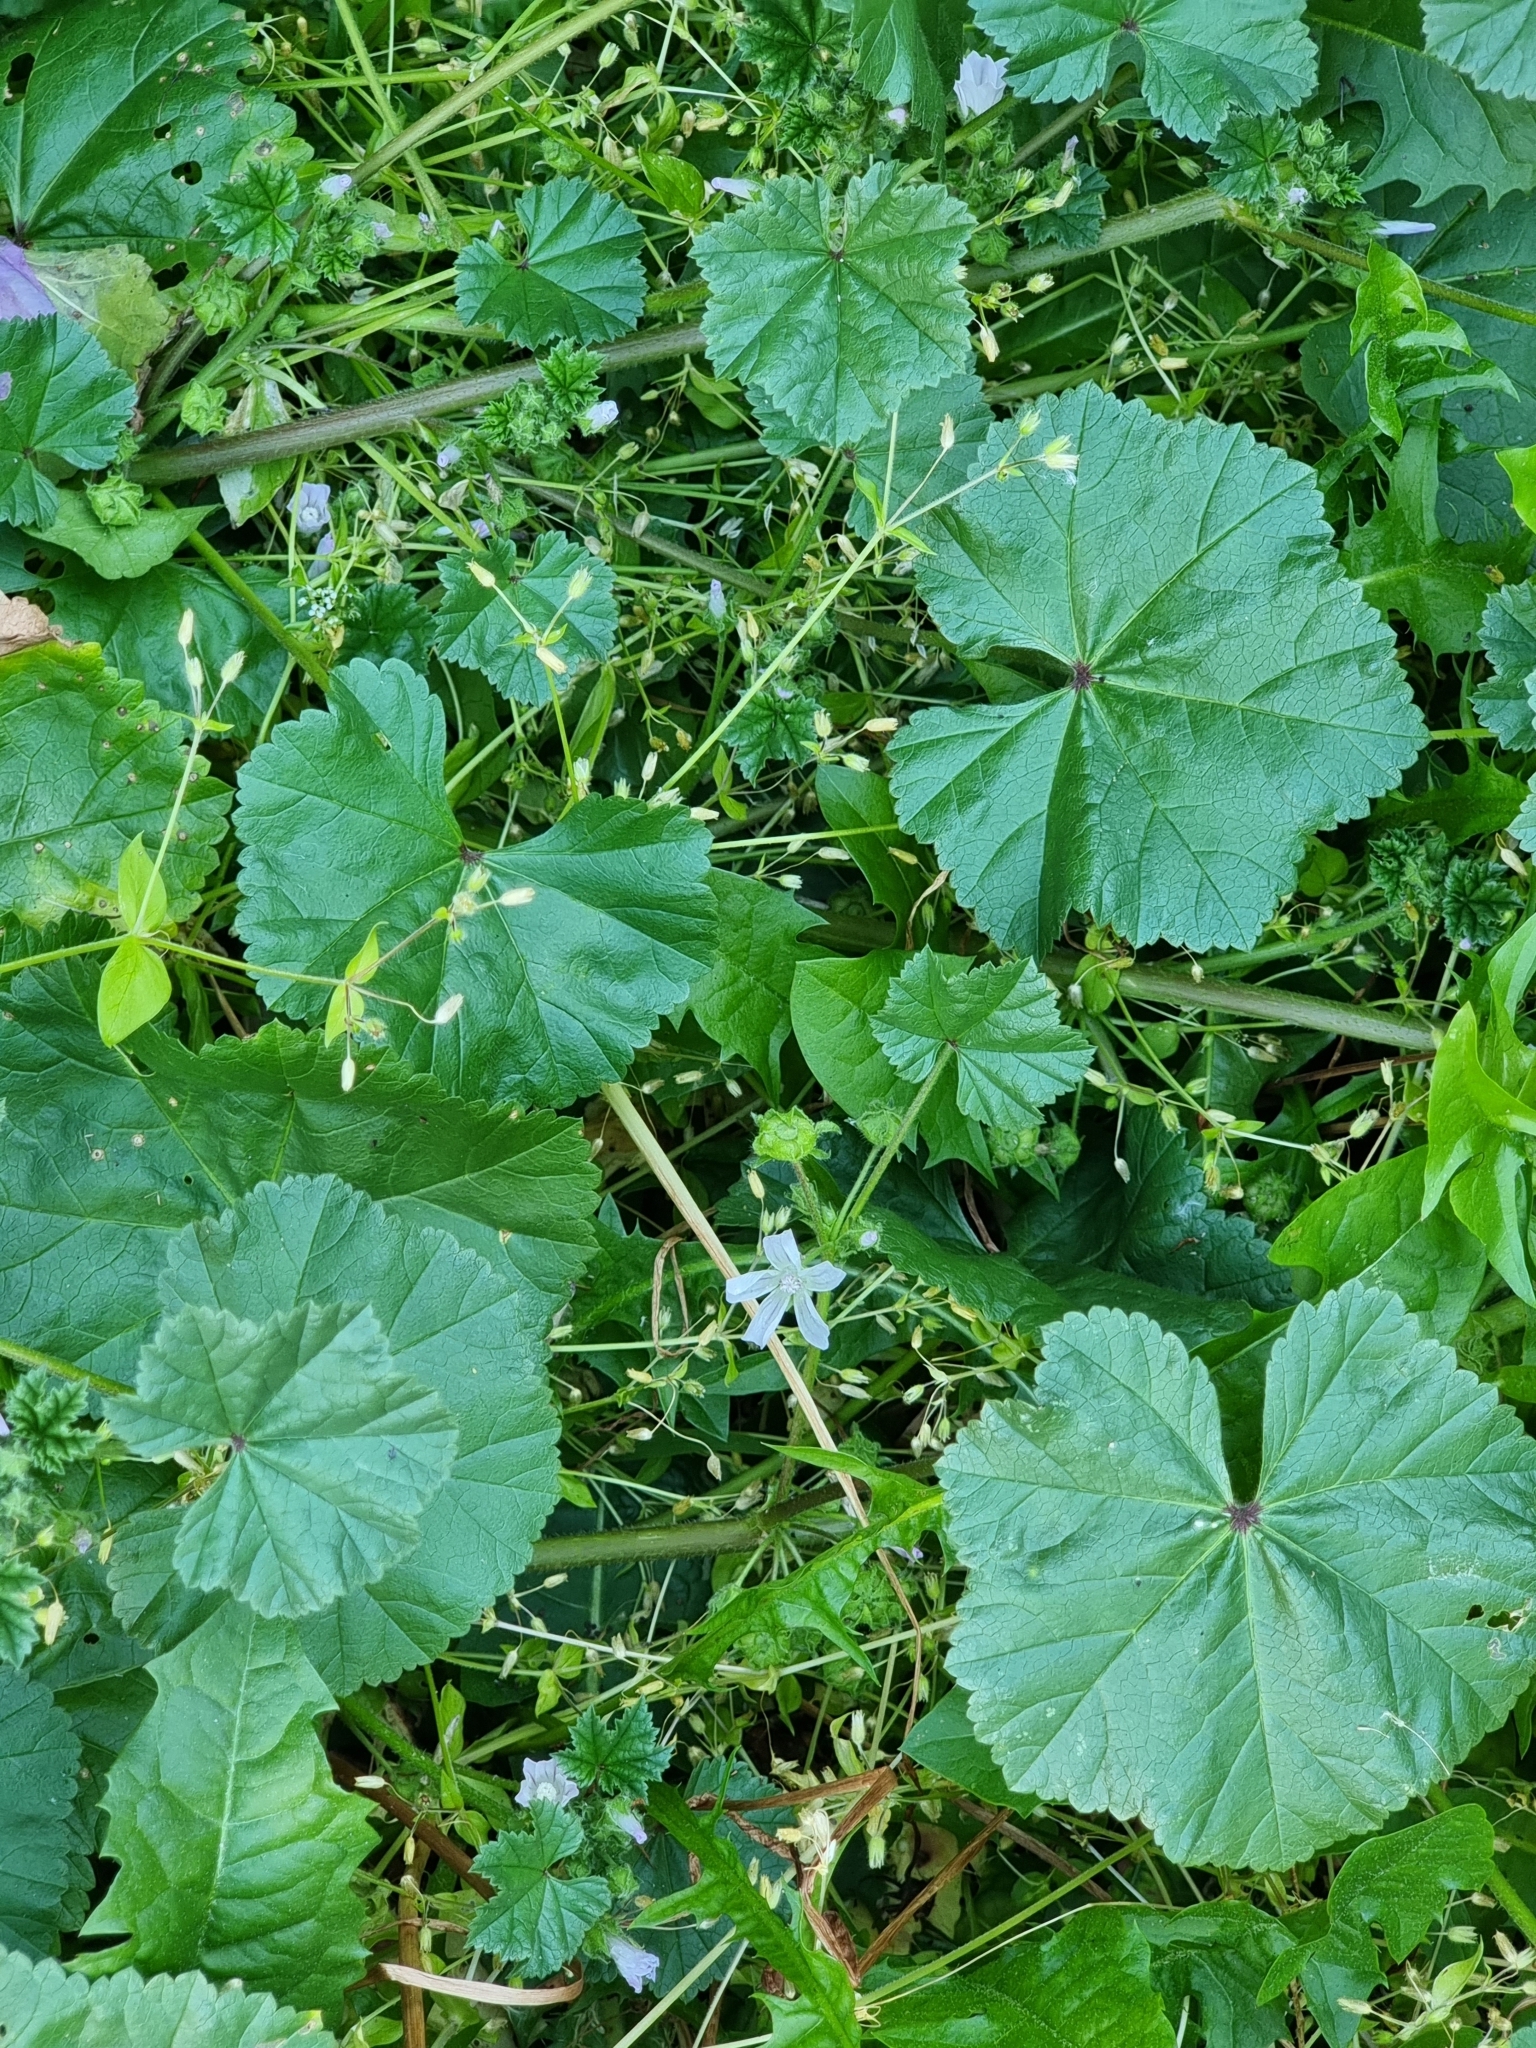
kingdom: Plantae
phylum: Tracheophyta
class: Magnoliopsida
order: Malvales
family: Malvaceae
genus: Malva
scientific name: Malva neglecta
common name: Common mallow
